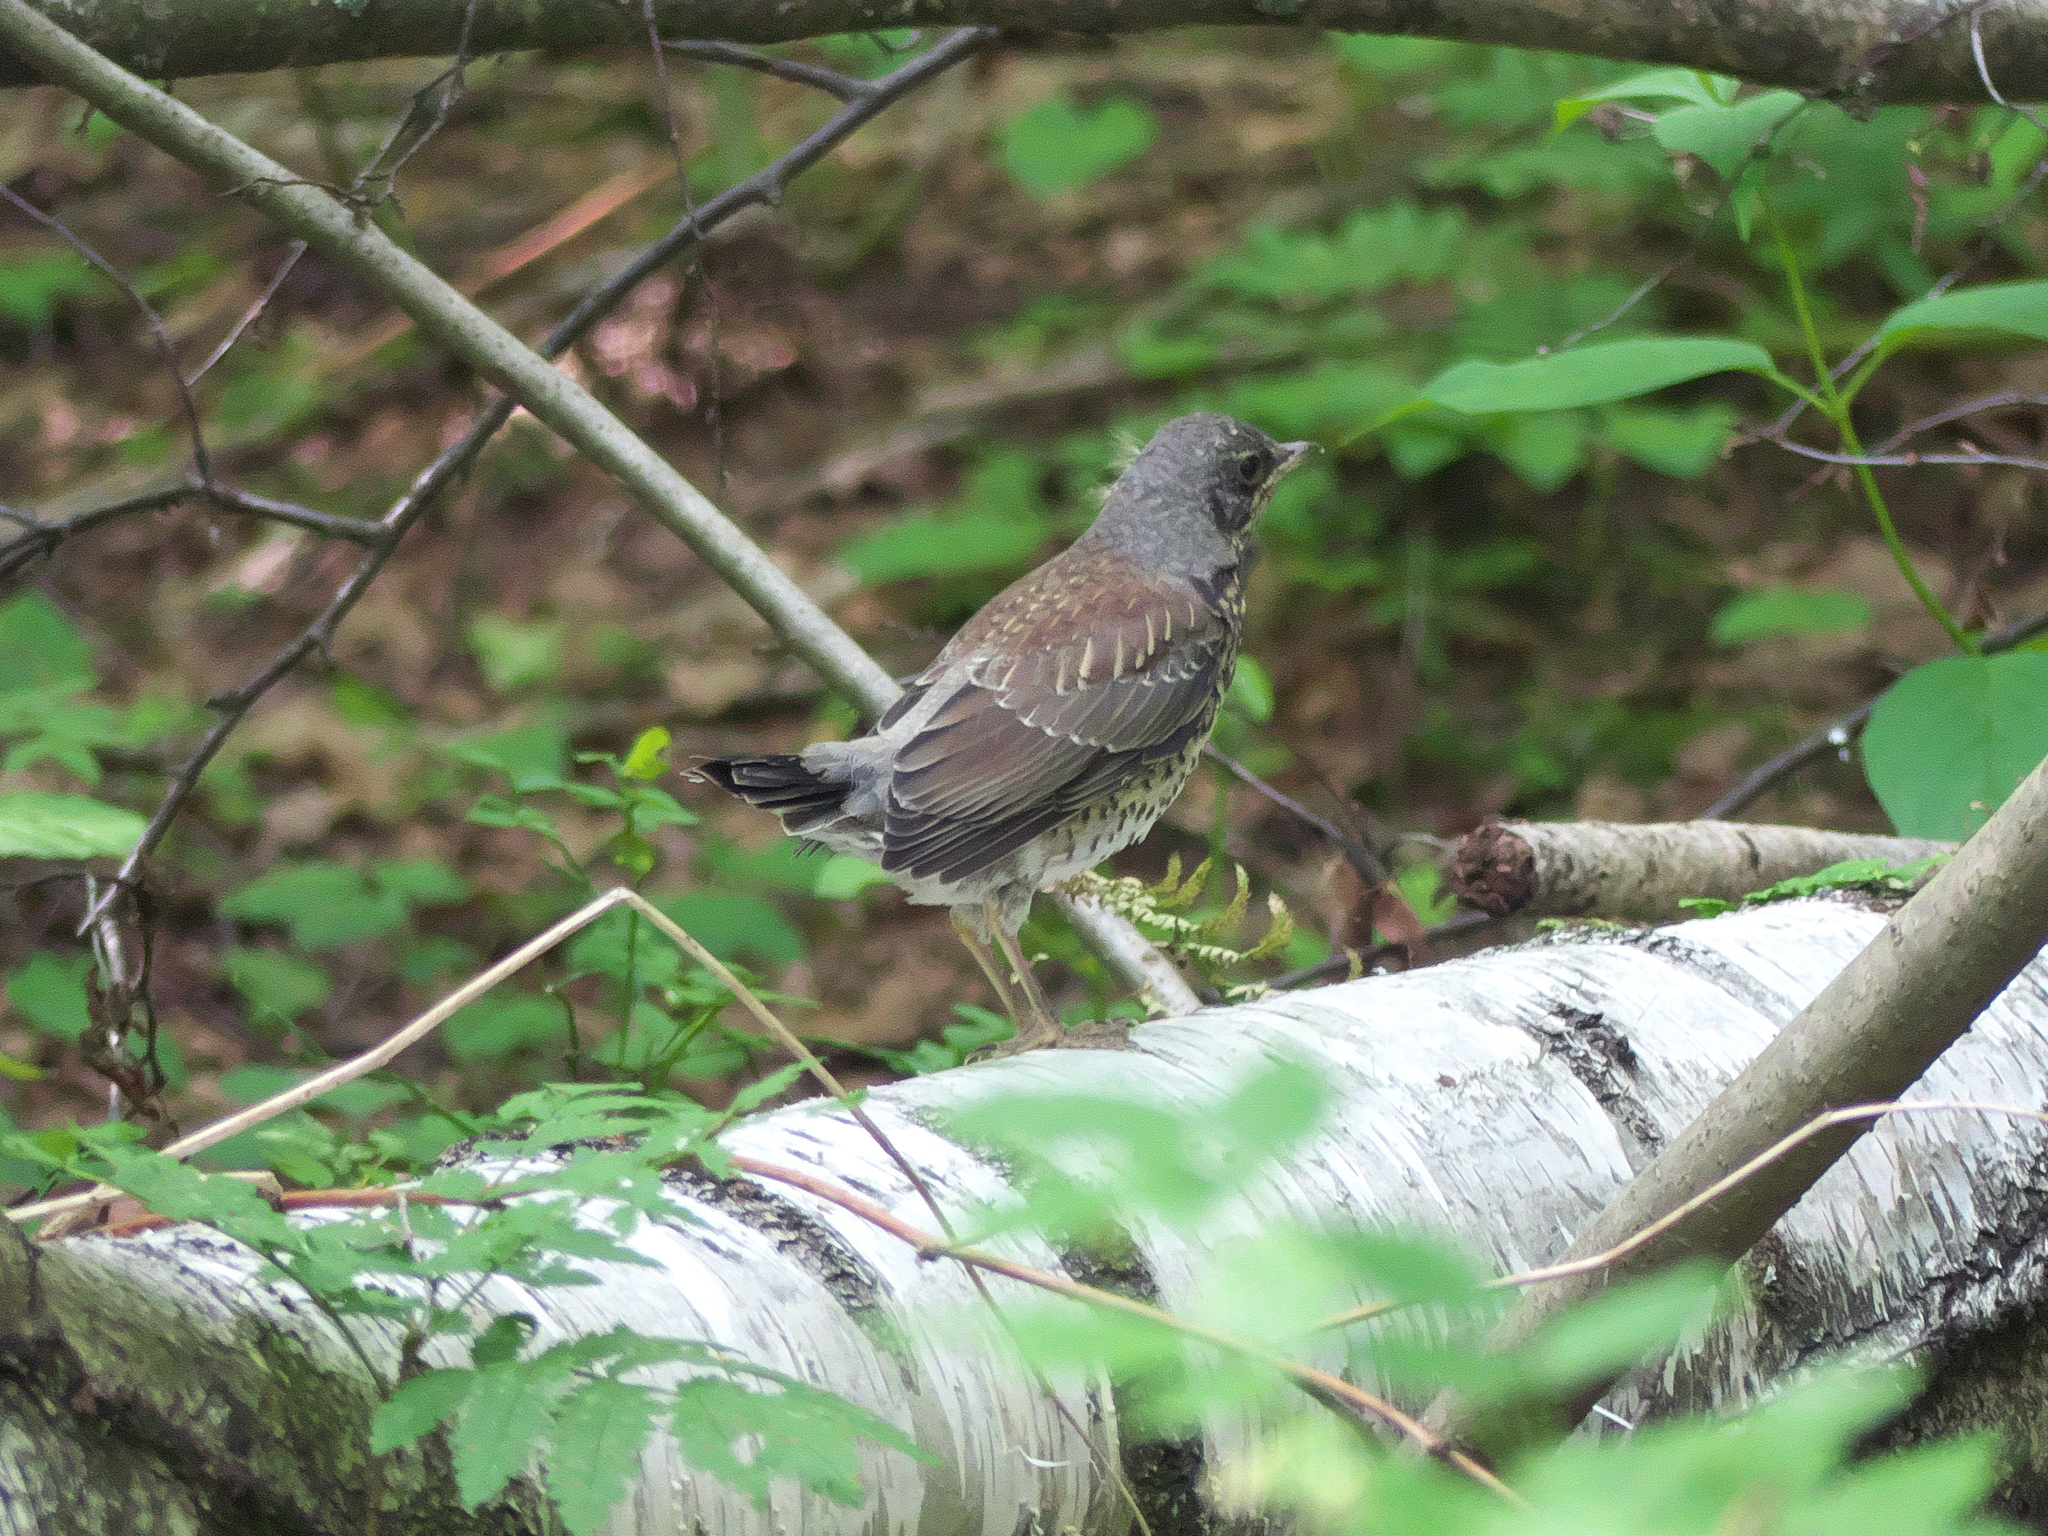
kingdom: Animalia
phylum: Chordata
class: Aves
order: Passeriformes
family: Turdidae
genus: Turdus
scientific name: Turdus pilaris
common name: Fieldfare
